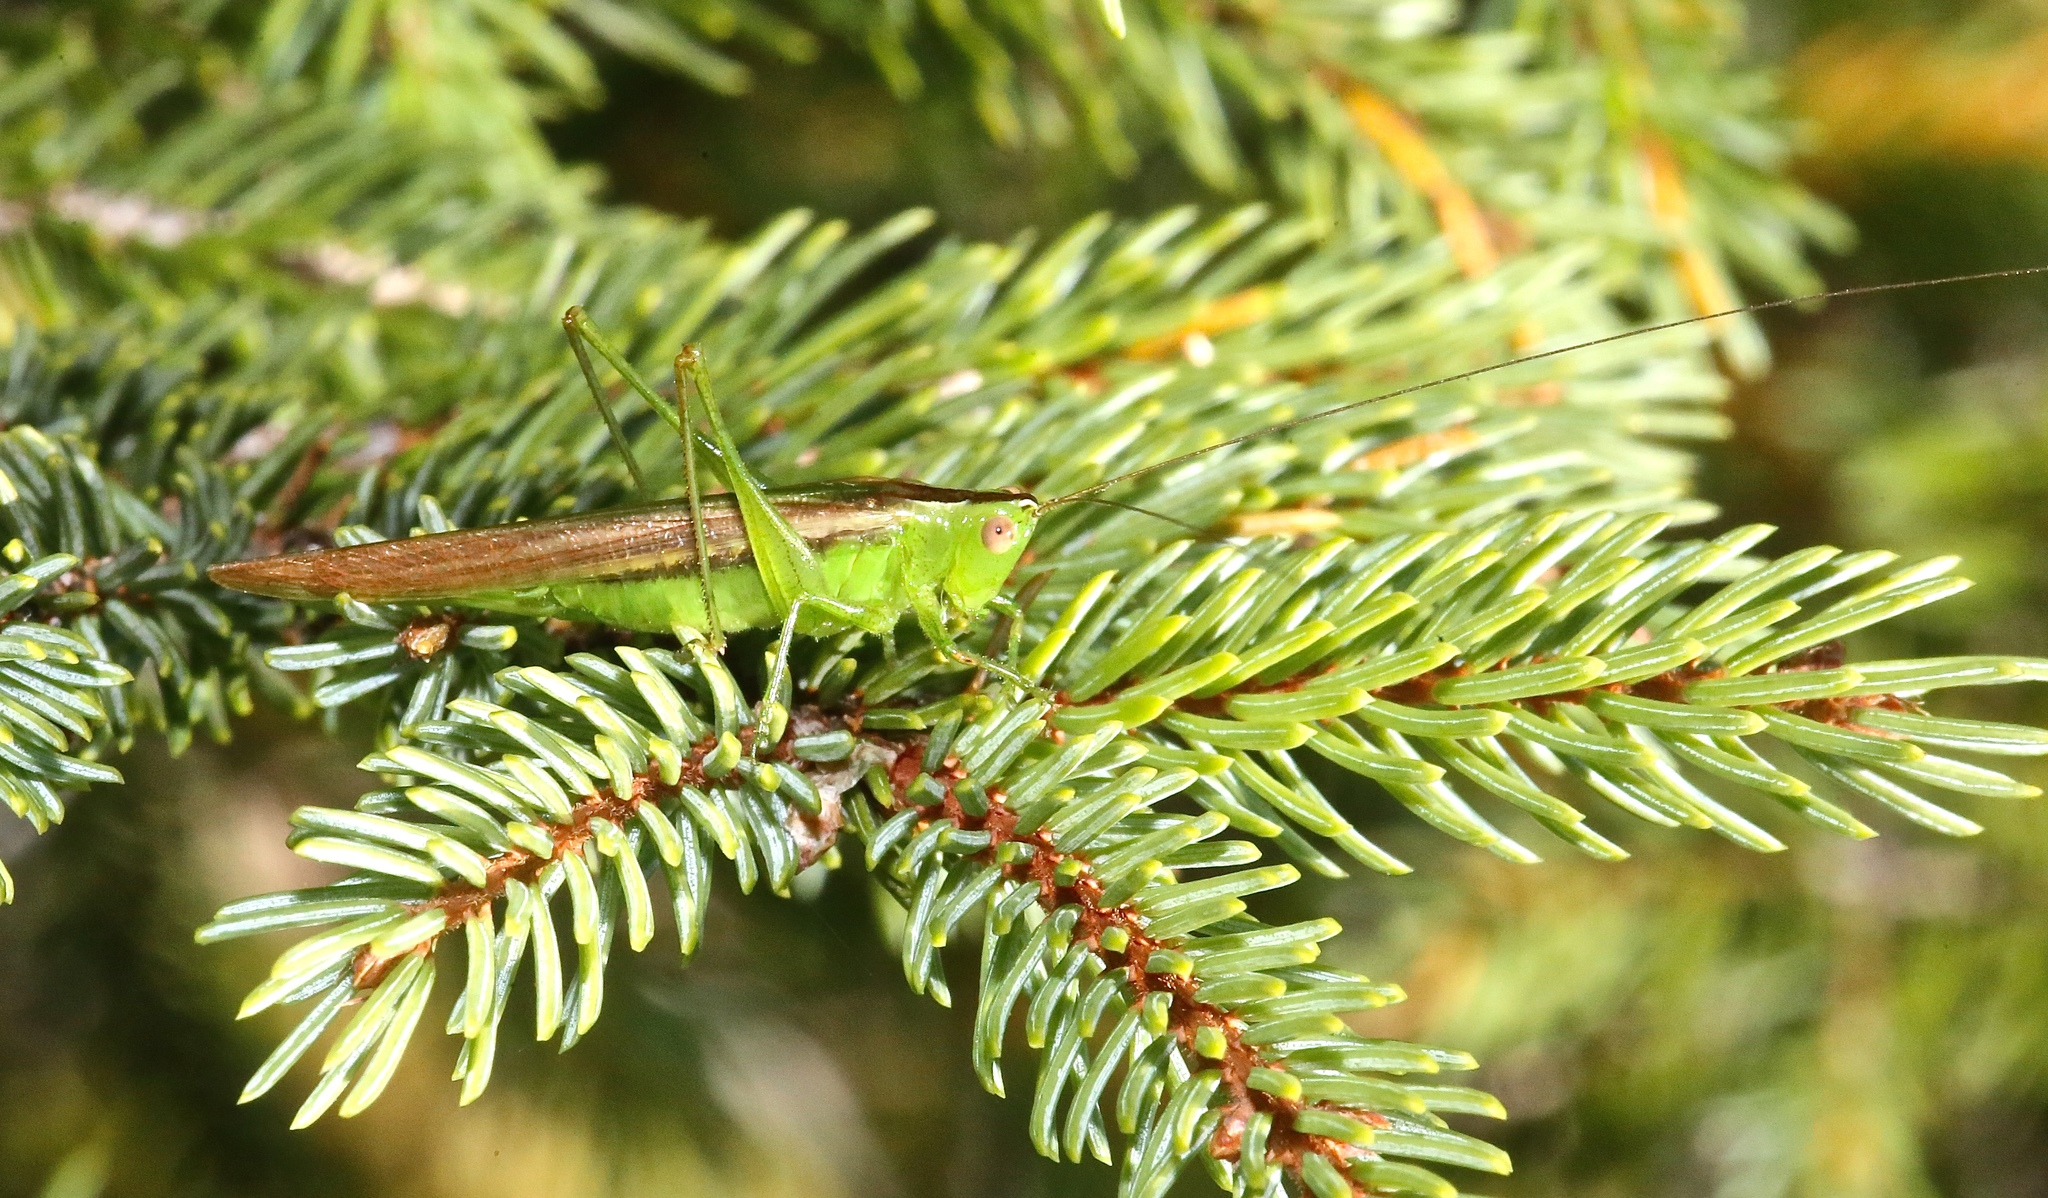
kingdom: Animalia
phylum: Arthropoda
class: Insecta
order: Orthoptera
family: Tettigoniidae
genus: Conocephalus
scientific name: Conocephalus fasciatus
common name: Slender meadow katydid
